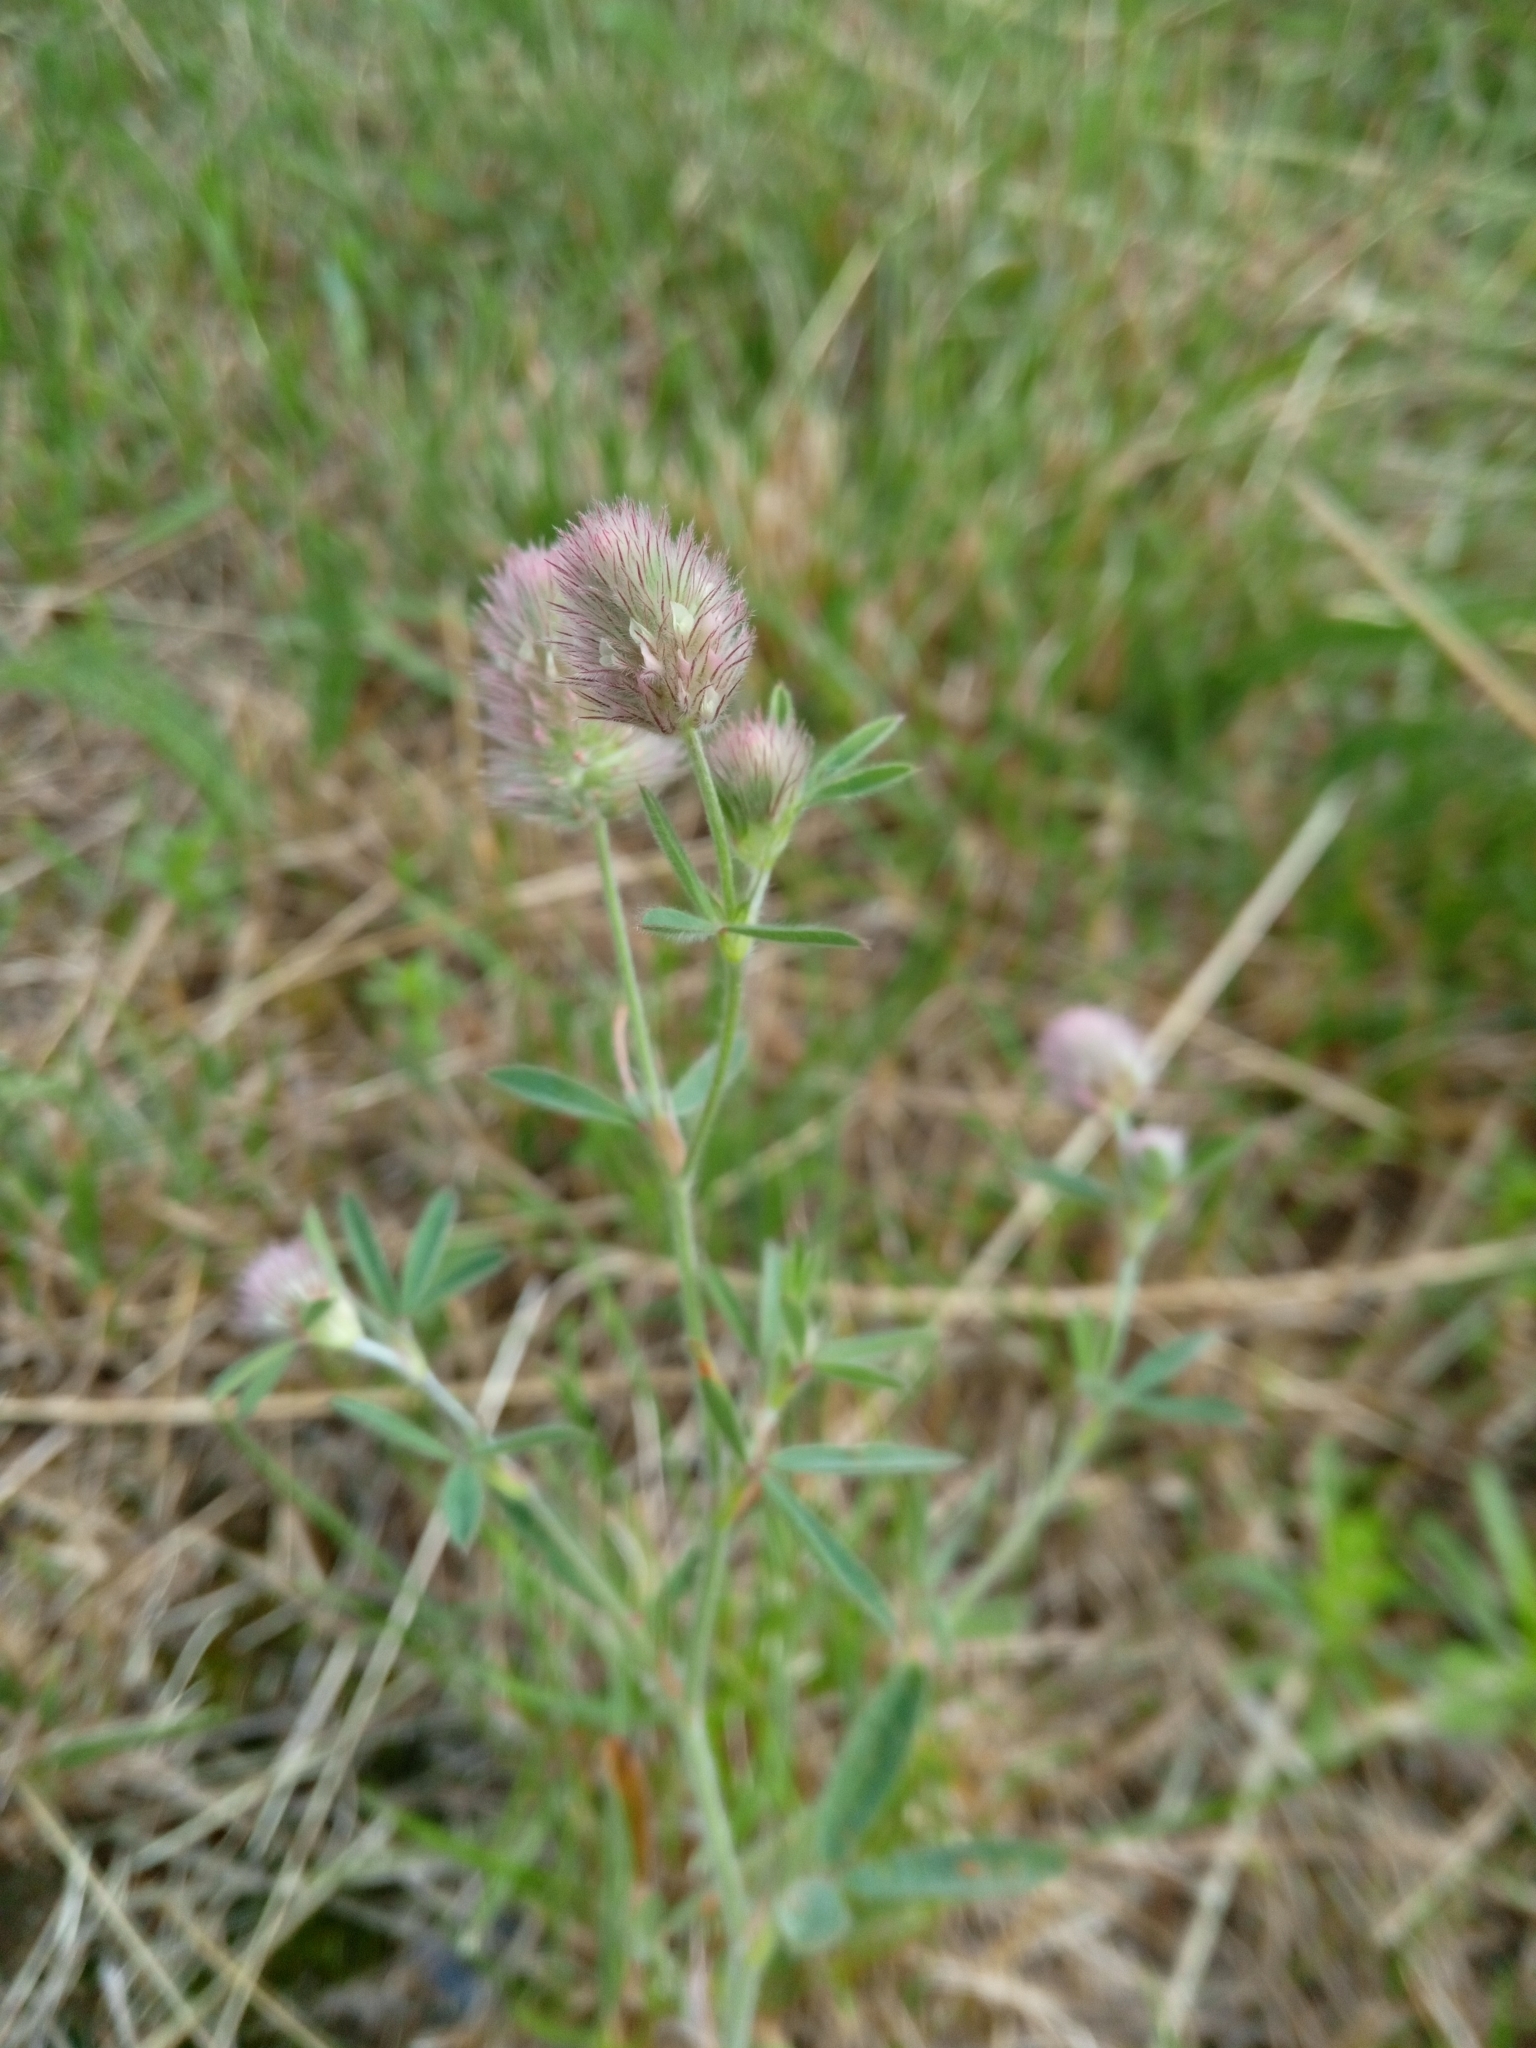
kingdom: Plantae
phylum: Tracheophyta
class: Magnoliopsida
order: Fabales
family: Fabaceae
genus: Trifolium
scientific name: Trifolium arvense
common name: Hare's-foot clover
